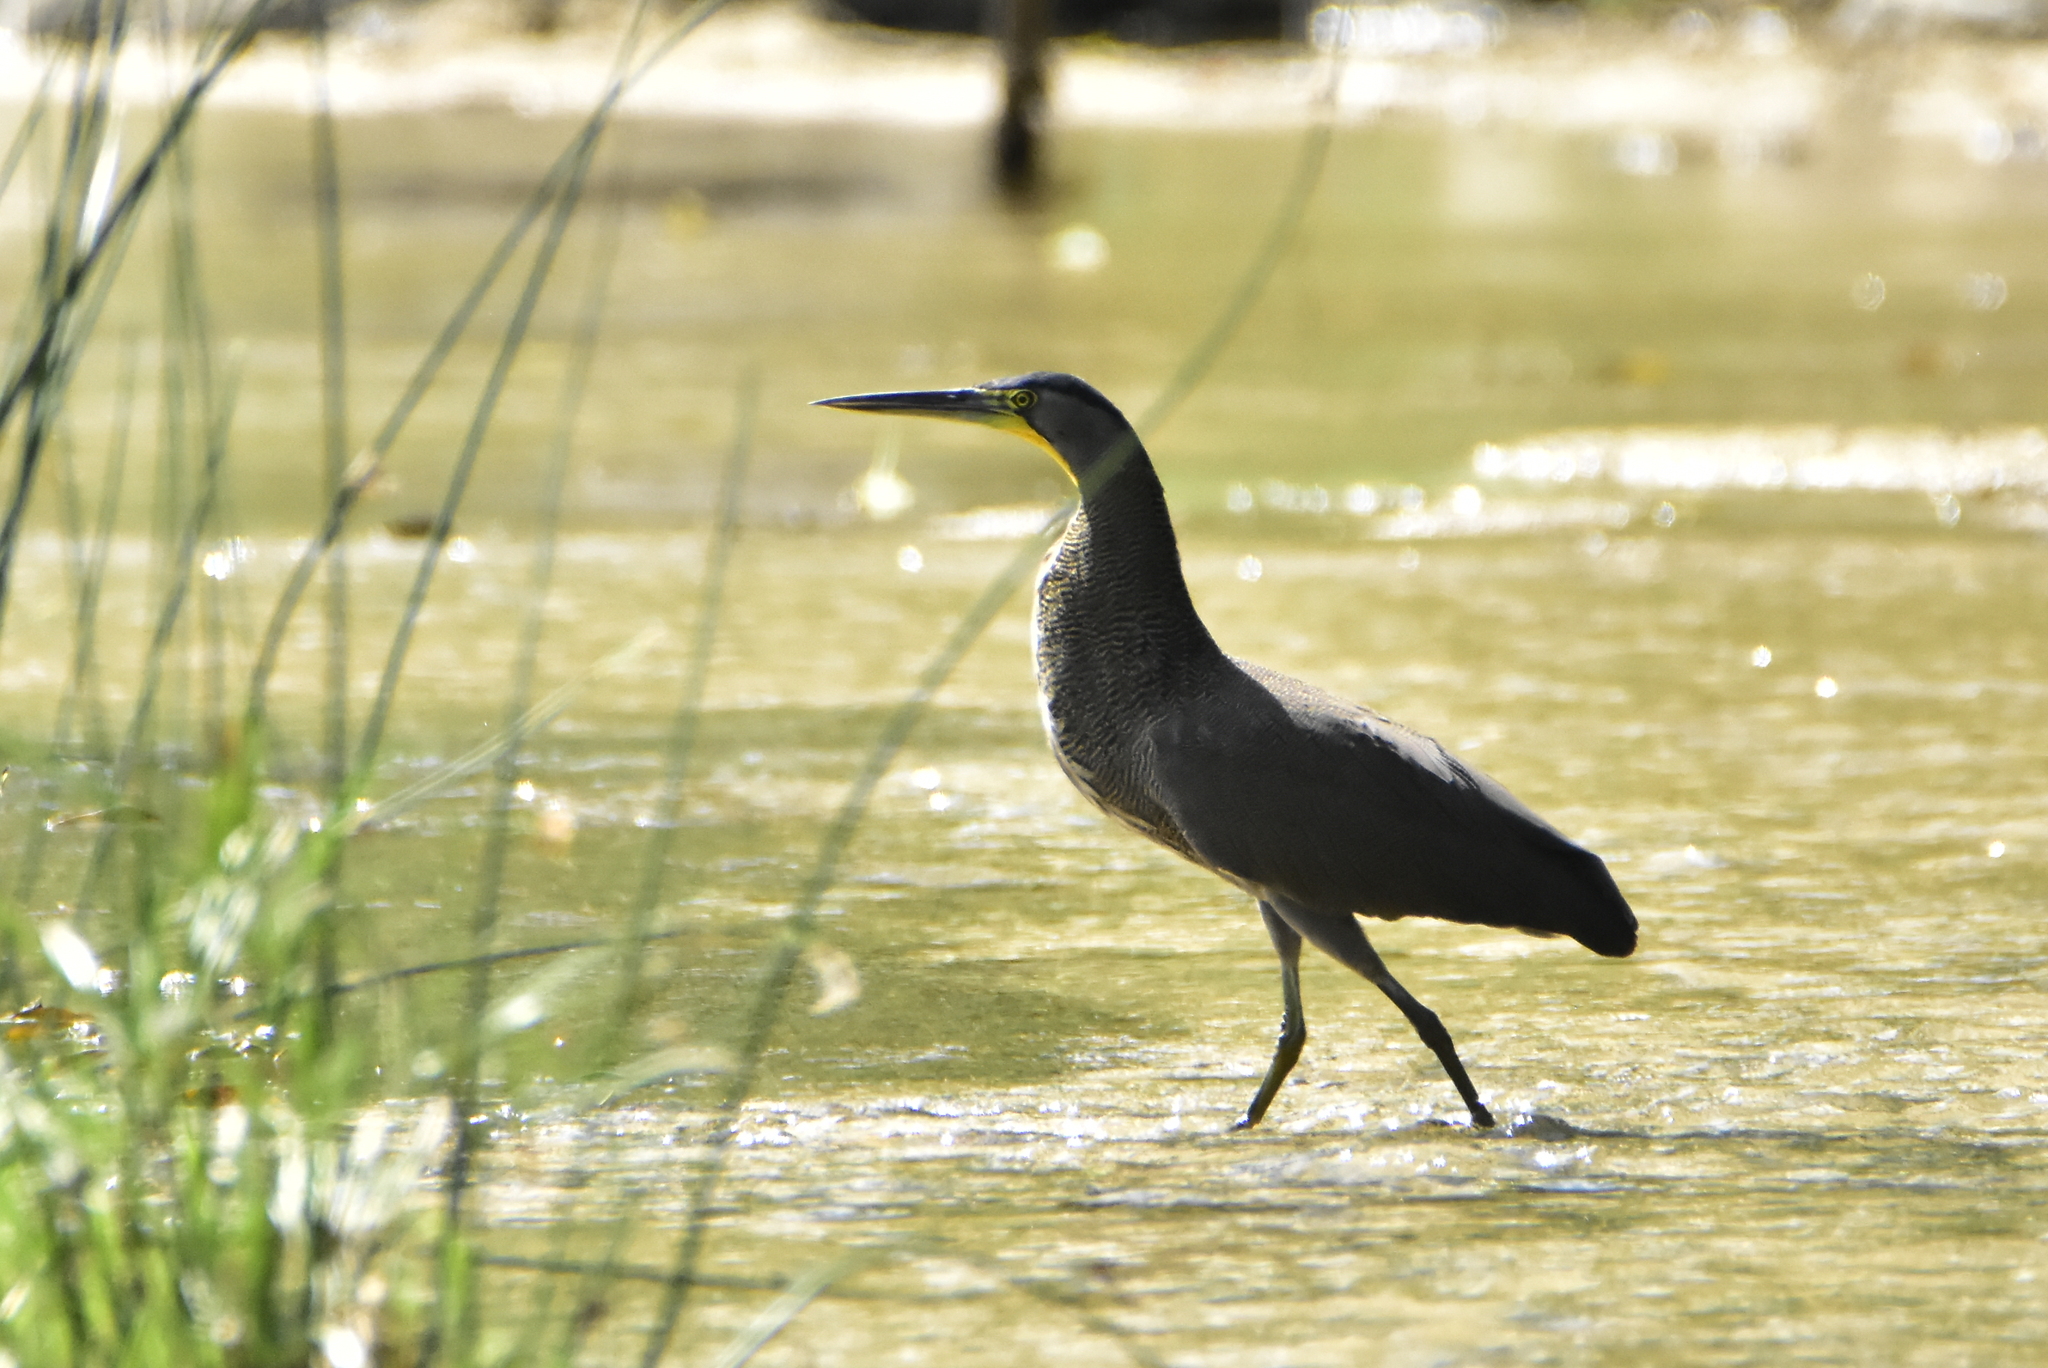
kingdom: Animalia
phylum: Chordata
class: Aves
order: Pelecaniformes
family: Ardeidae
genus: Tigrisoma
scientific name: Tigrisoma mexicanum
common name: Bare-throated tiger-heron
